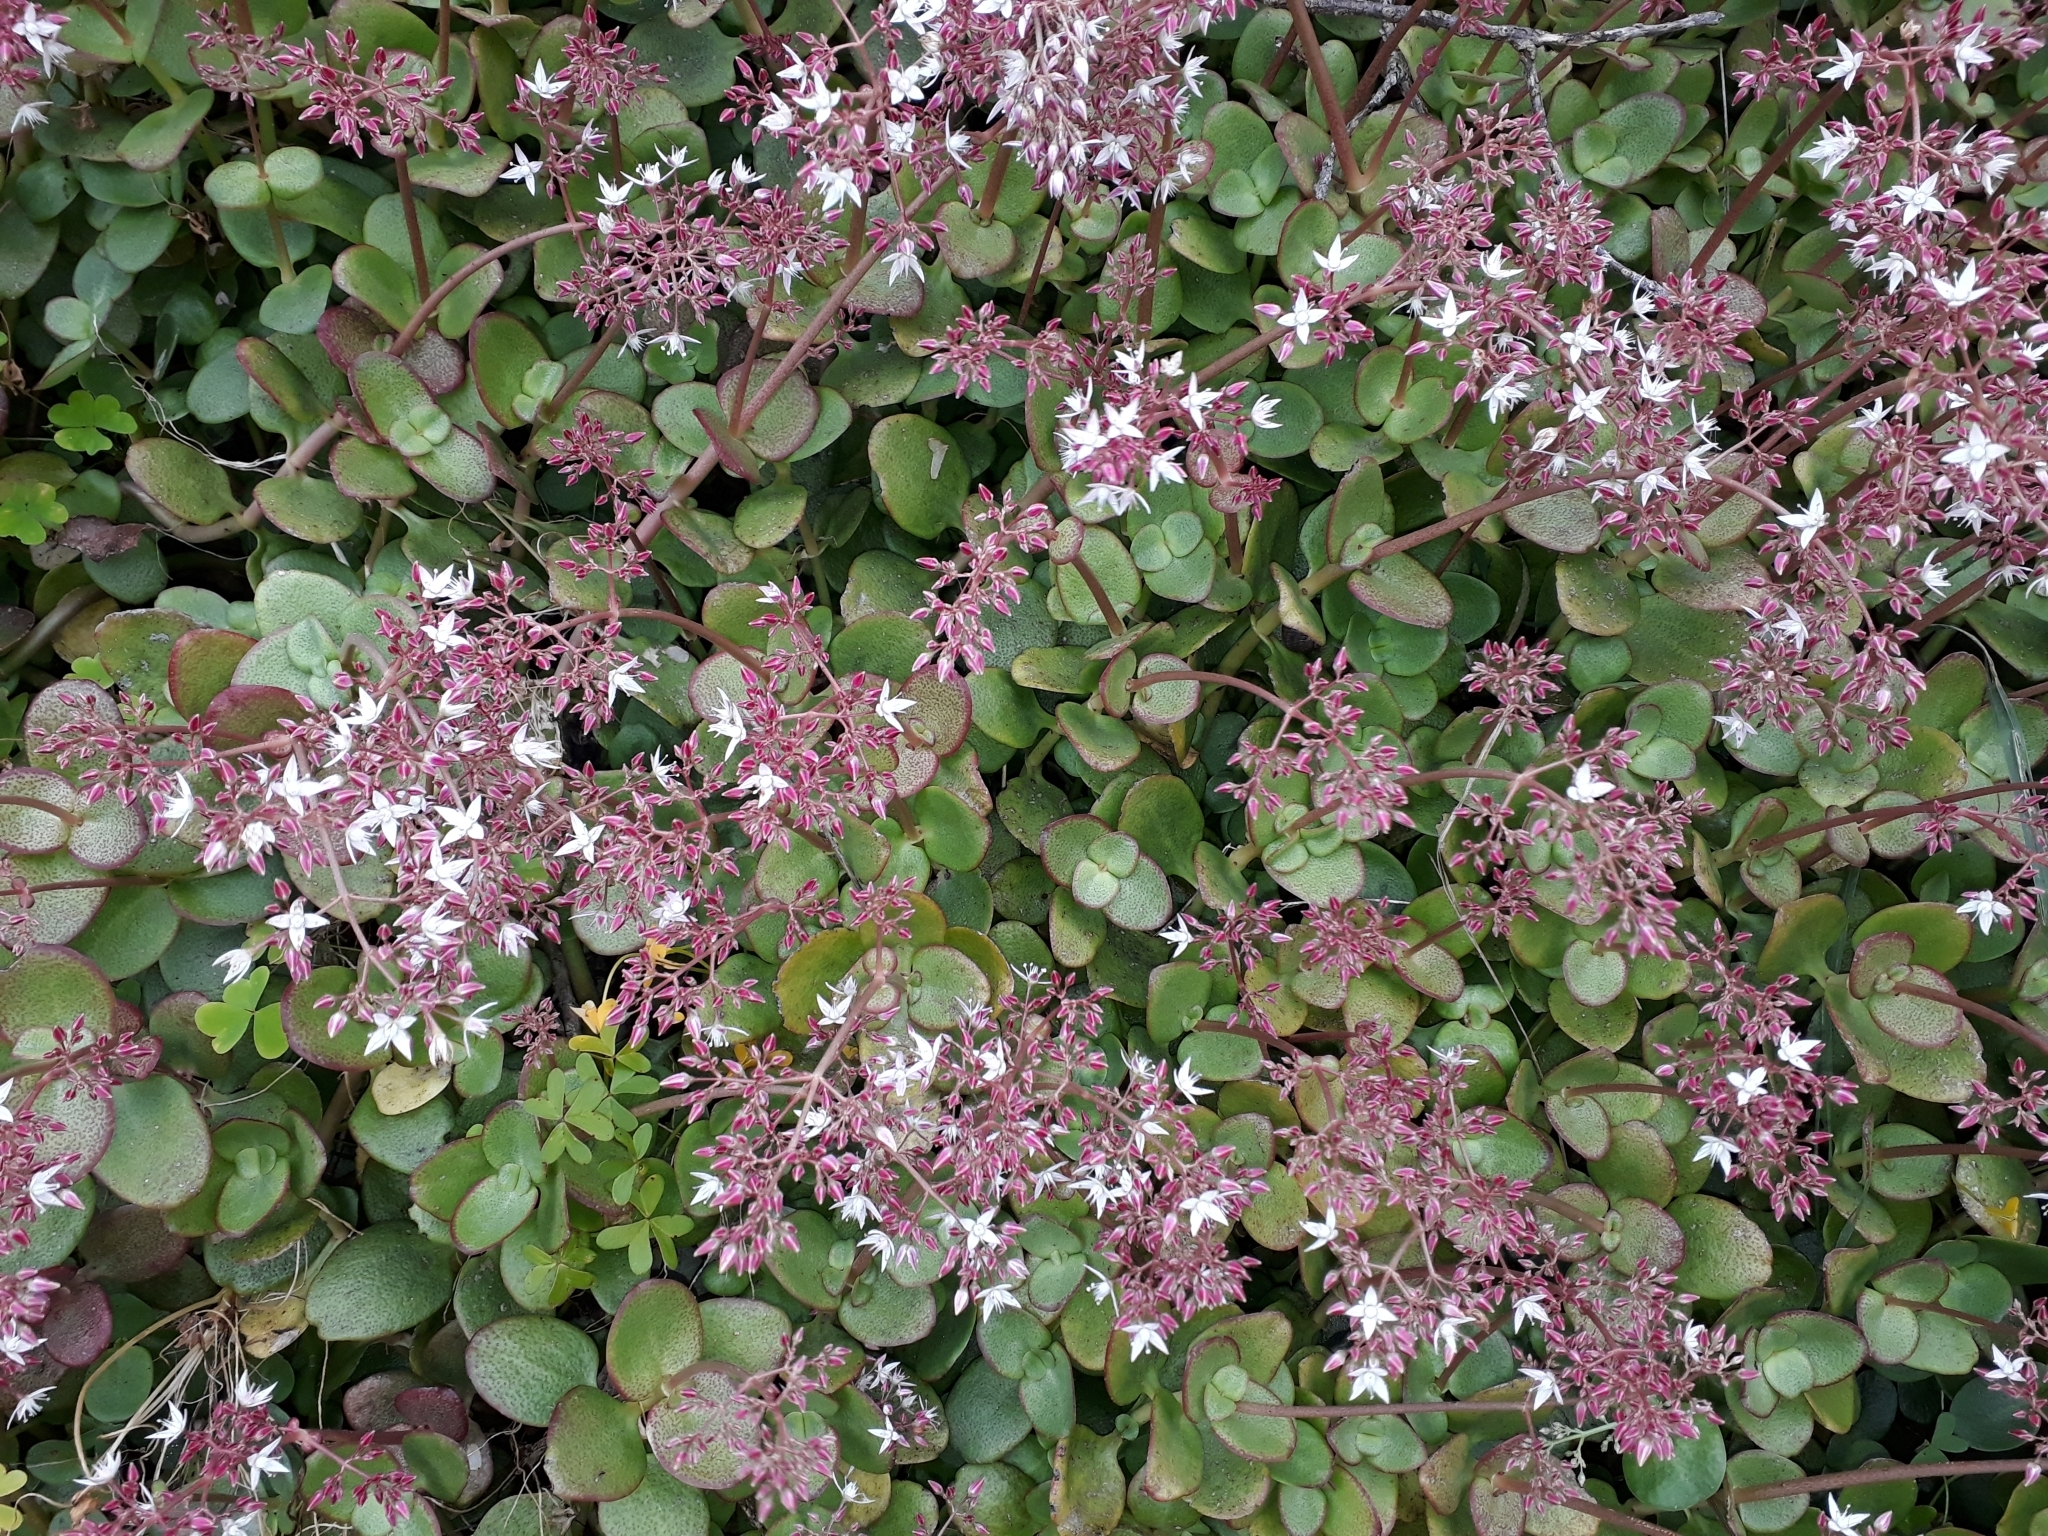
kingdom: Plantae
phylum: Tracheophyta
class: Magnoliopsida
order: Saxifragales
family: Crassulaceae
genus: Crassula
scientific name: Crassula multicava
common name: Cape province pygmyweed
